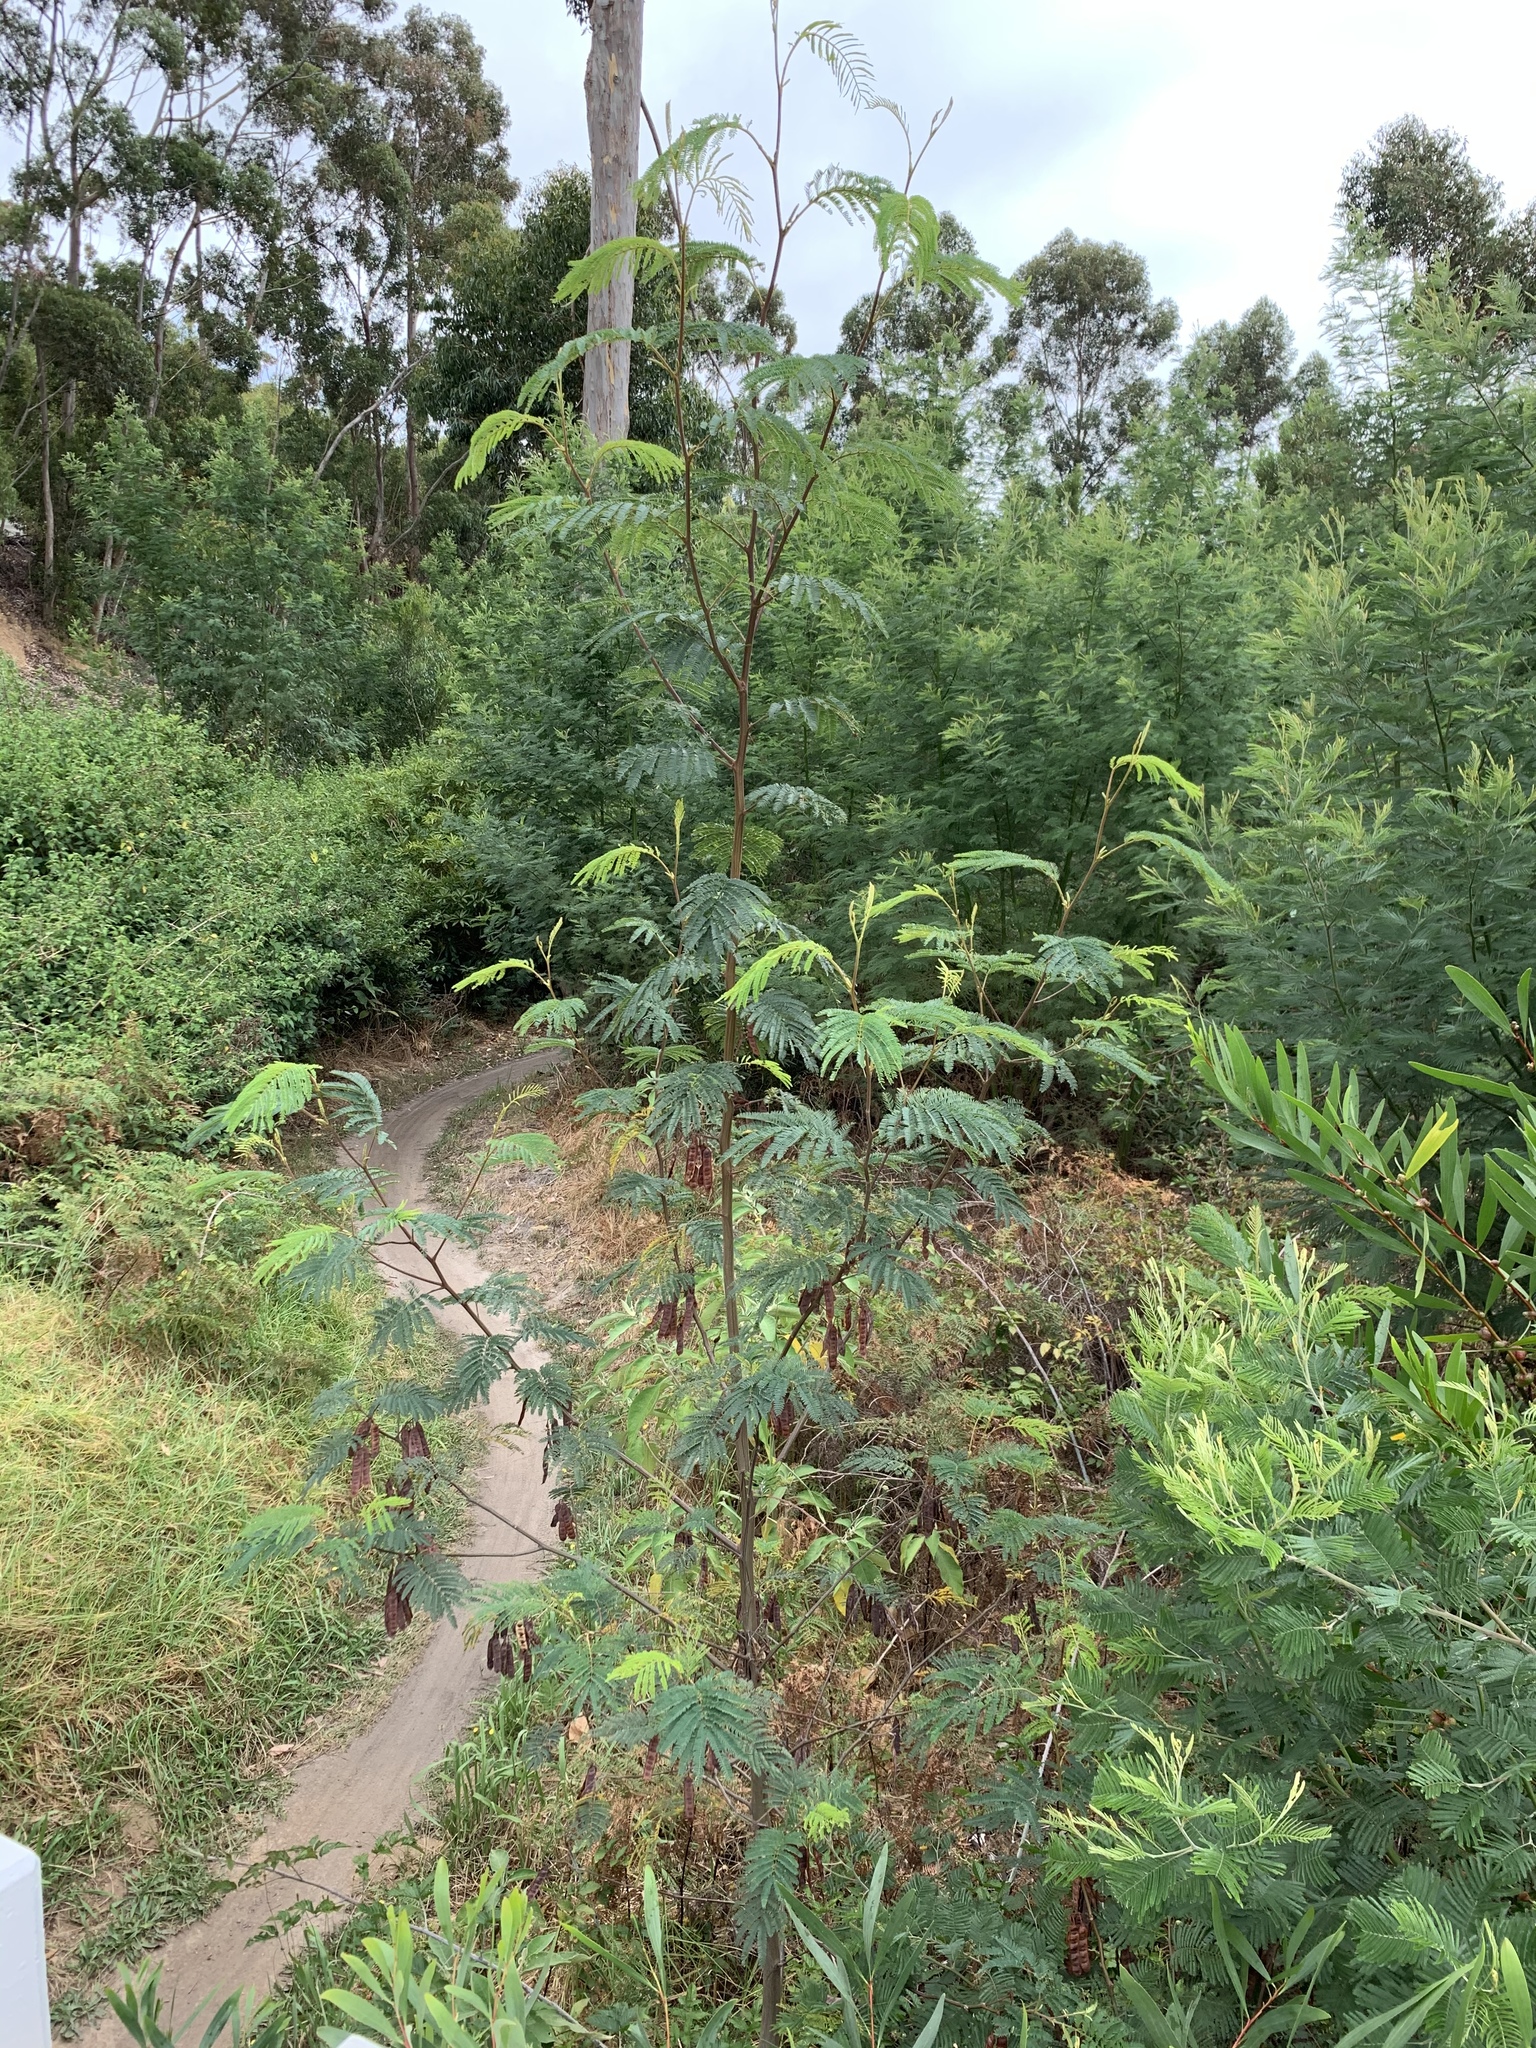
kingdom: Plantae
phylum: Tracheophyta
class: Magnoliopsida
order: Fabales
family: Fabaceae
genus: Paraserianthes
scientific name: Paraserianthes lophantha
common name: Plume albizia
